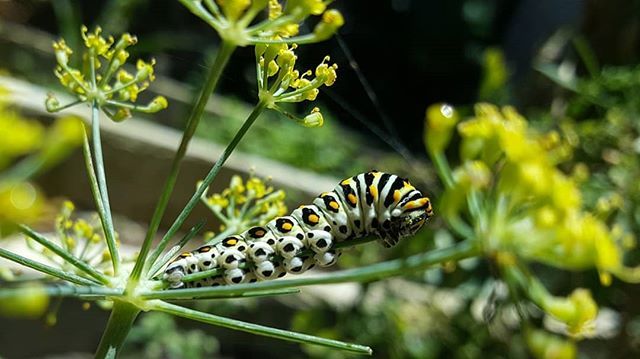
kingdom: Animalia
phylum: Arthropoda
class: Insecta
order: Lepidoptera
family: Papilionidae
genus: Papilio
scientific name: Papilio polyxenes
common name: Black swallowtail
